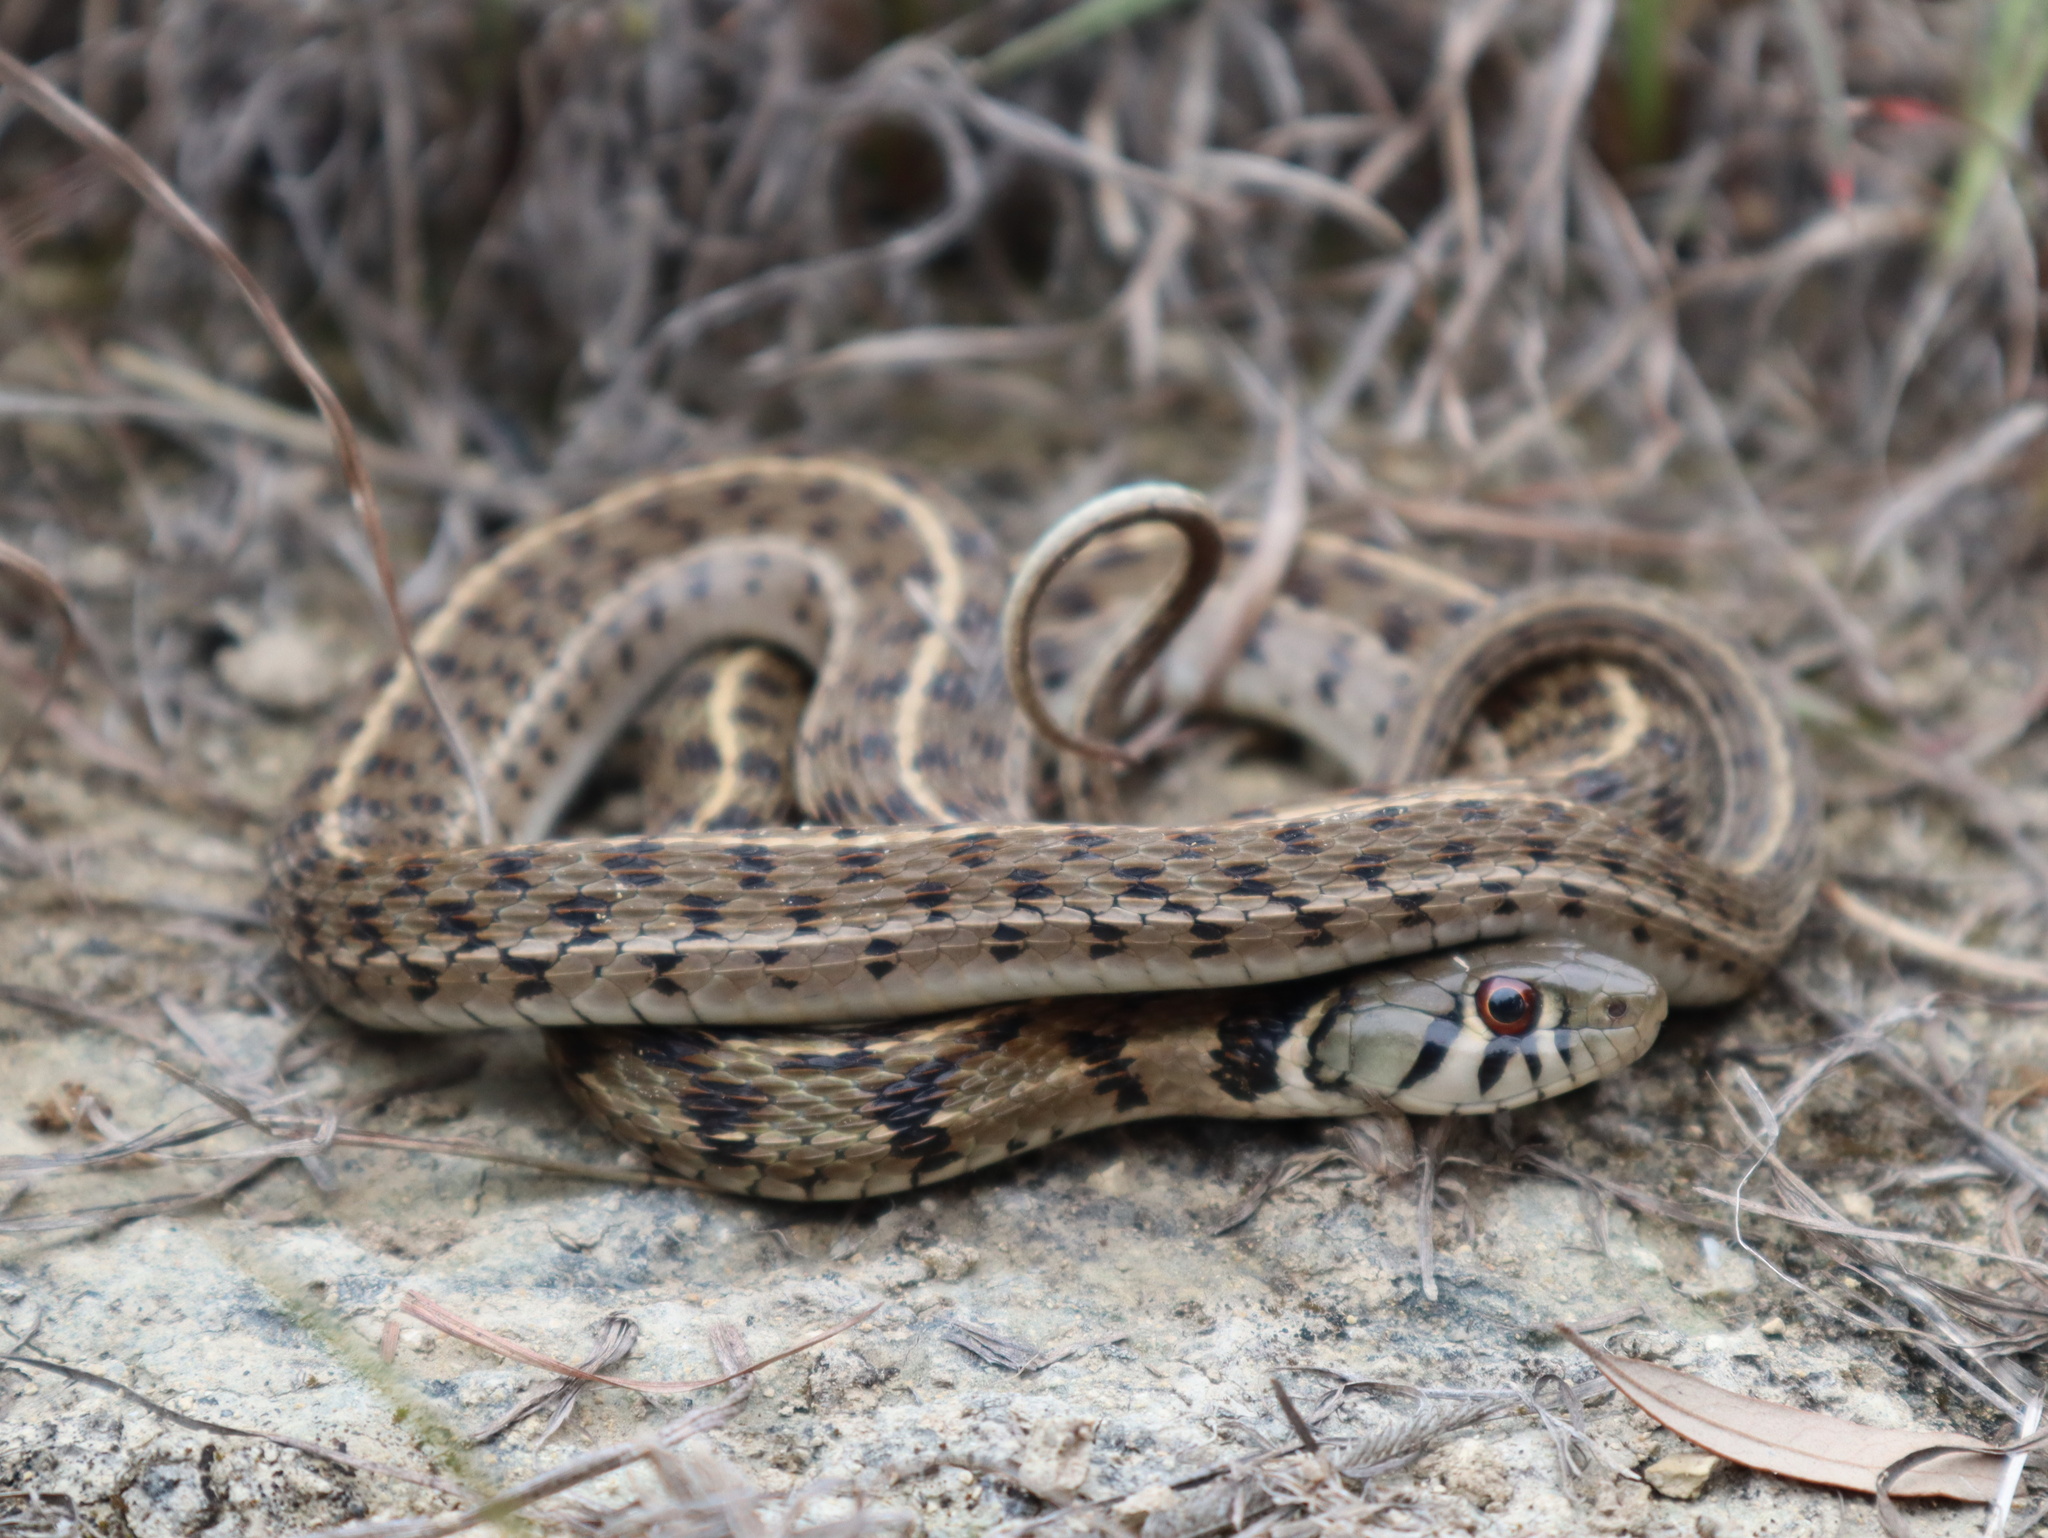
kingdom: Animalia
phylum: Chordata
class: Squamata
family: Colubridae
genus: Thamnophis
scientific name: Thamnophis marcianus
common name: Checkered garter snake
